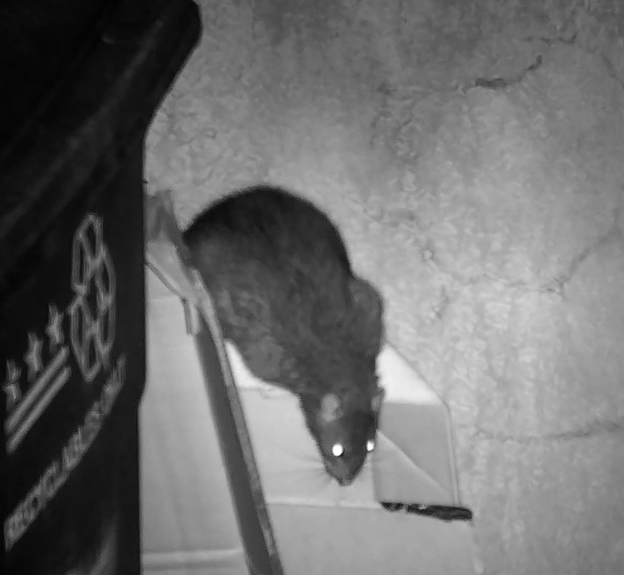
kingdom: Animalia
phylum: Chordata
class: Mammalia
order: Rodentia
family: Muridae
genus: Rattus
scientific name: Rattus norvegicus
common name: Brown rat
